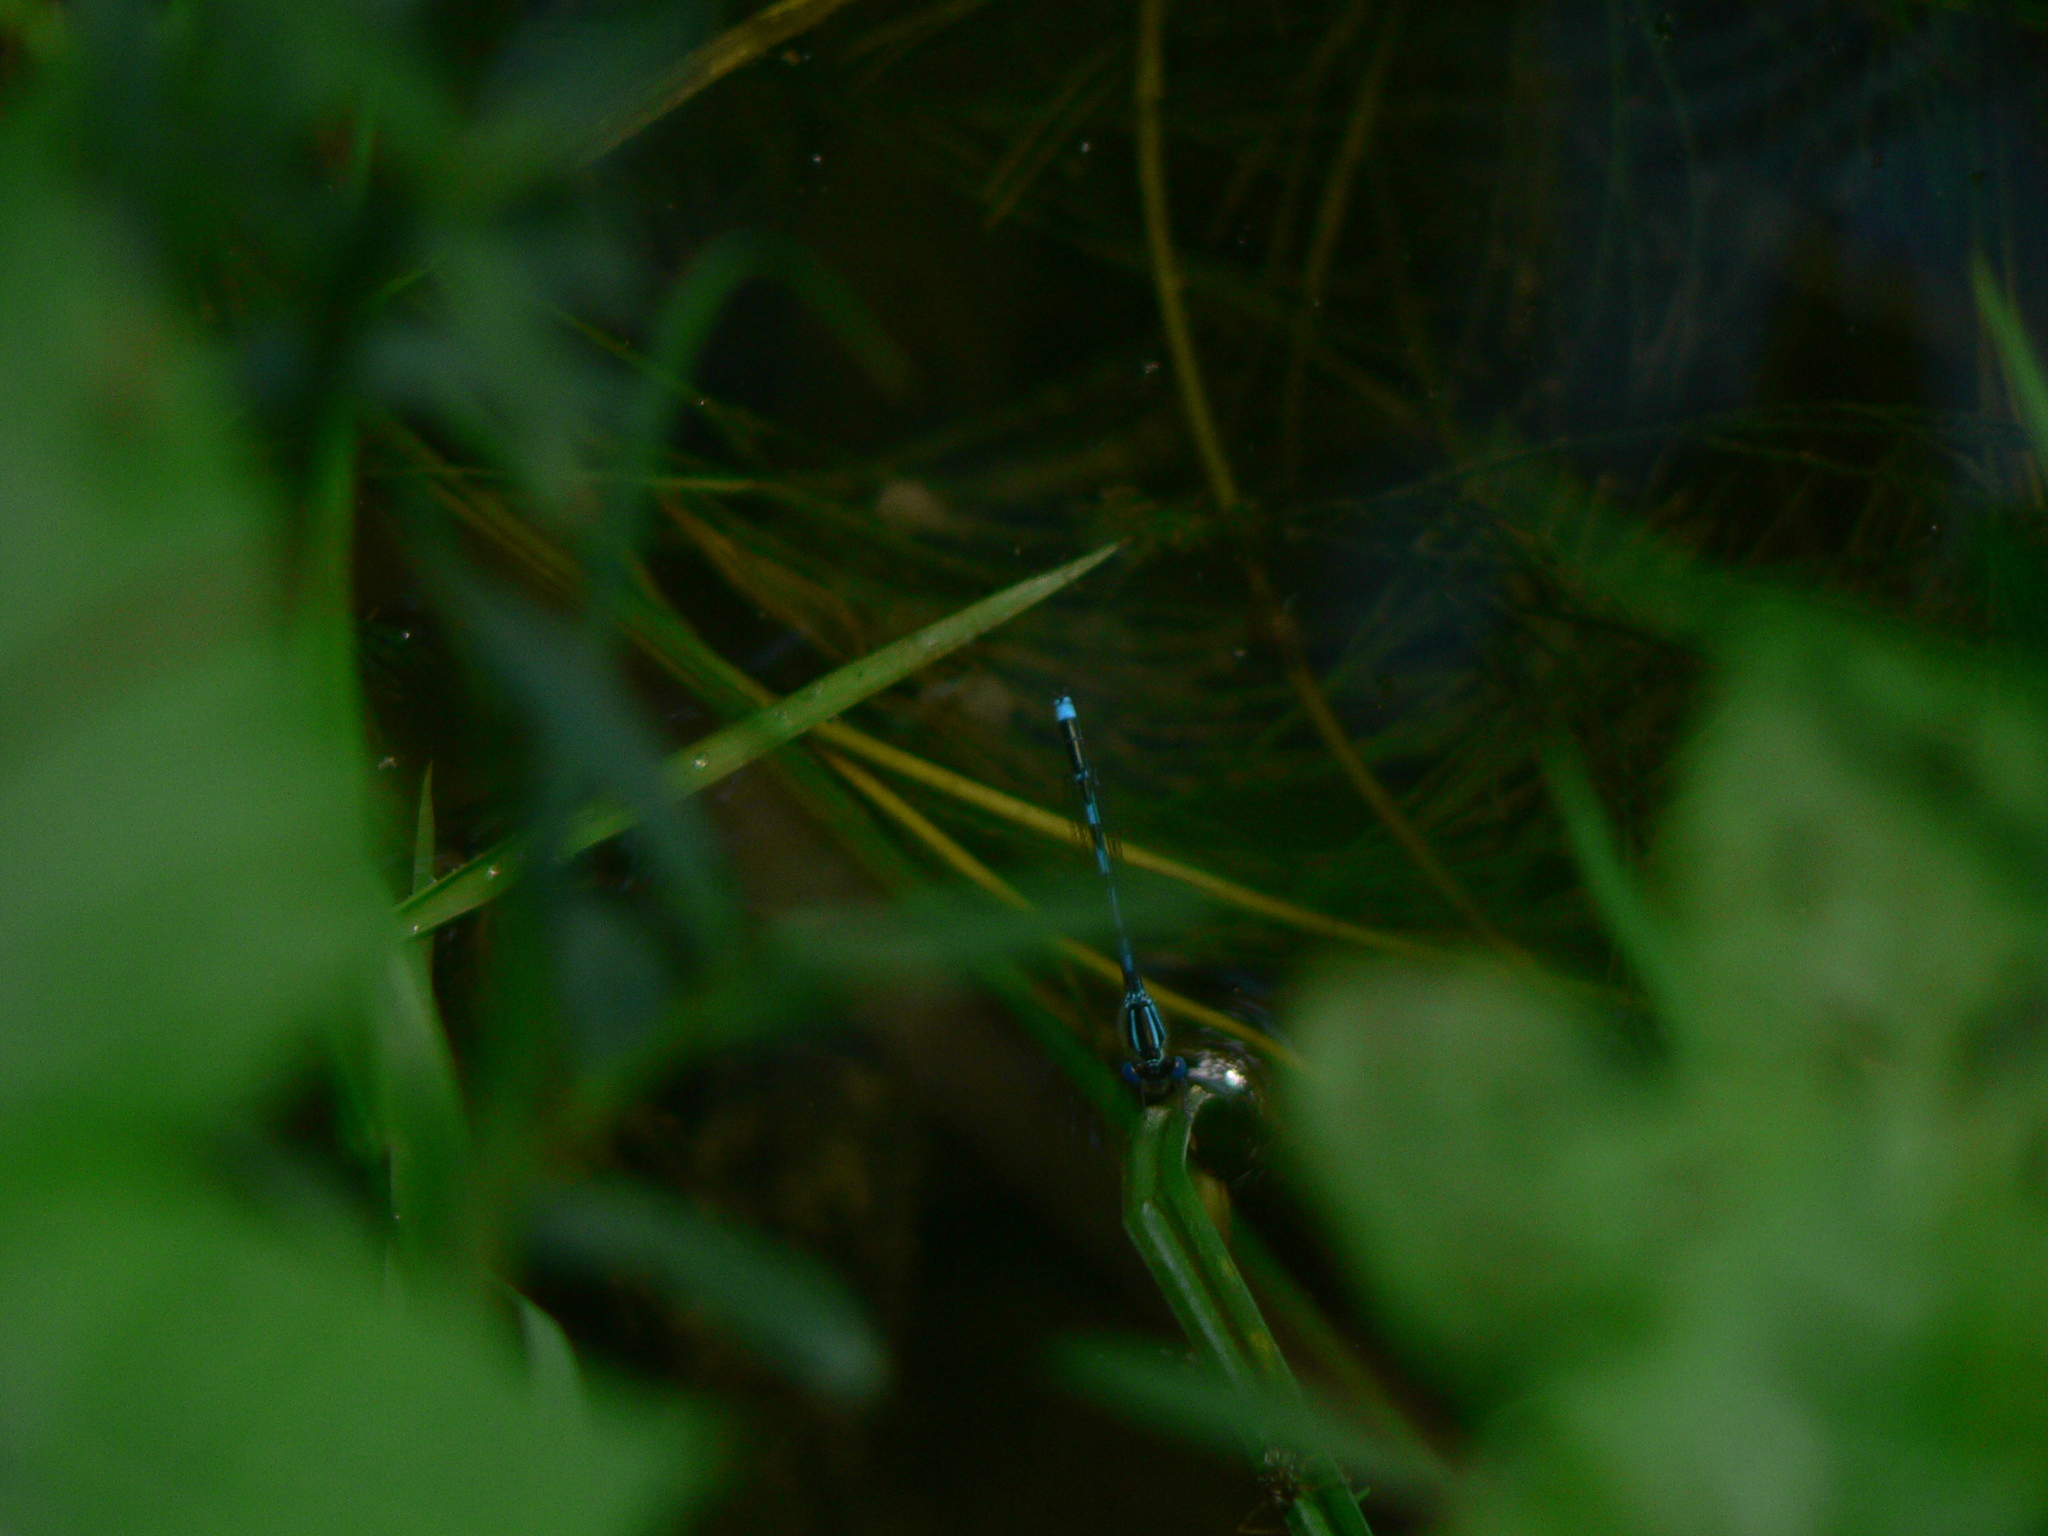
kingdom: Animalia
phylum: Arthropoda
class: Insecta
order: Odonata
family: Coenagrionidae
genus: Erythromma
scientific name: Erythromma lindenii
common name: Blue-eye
